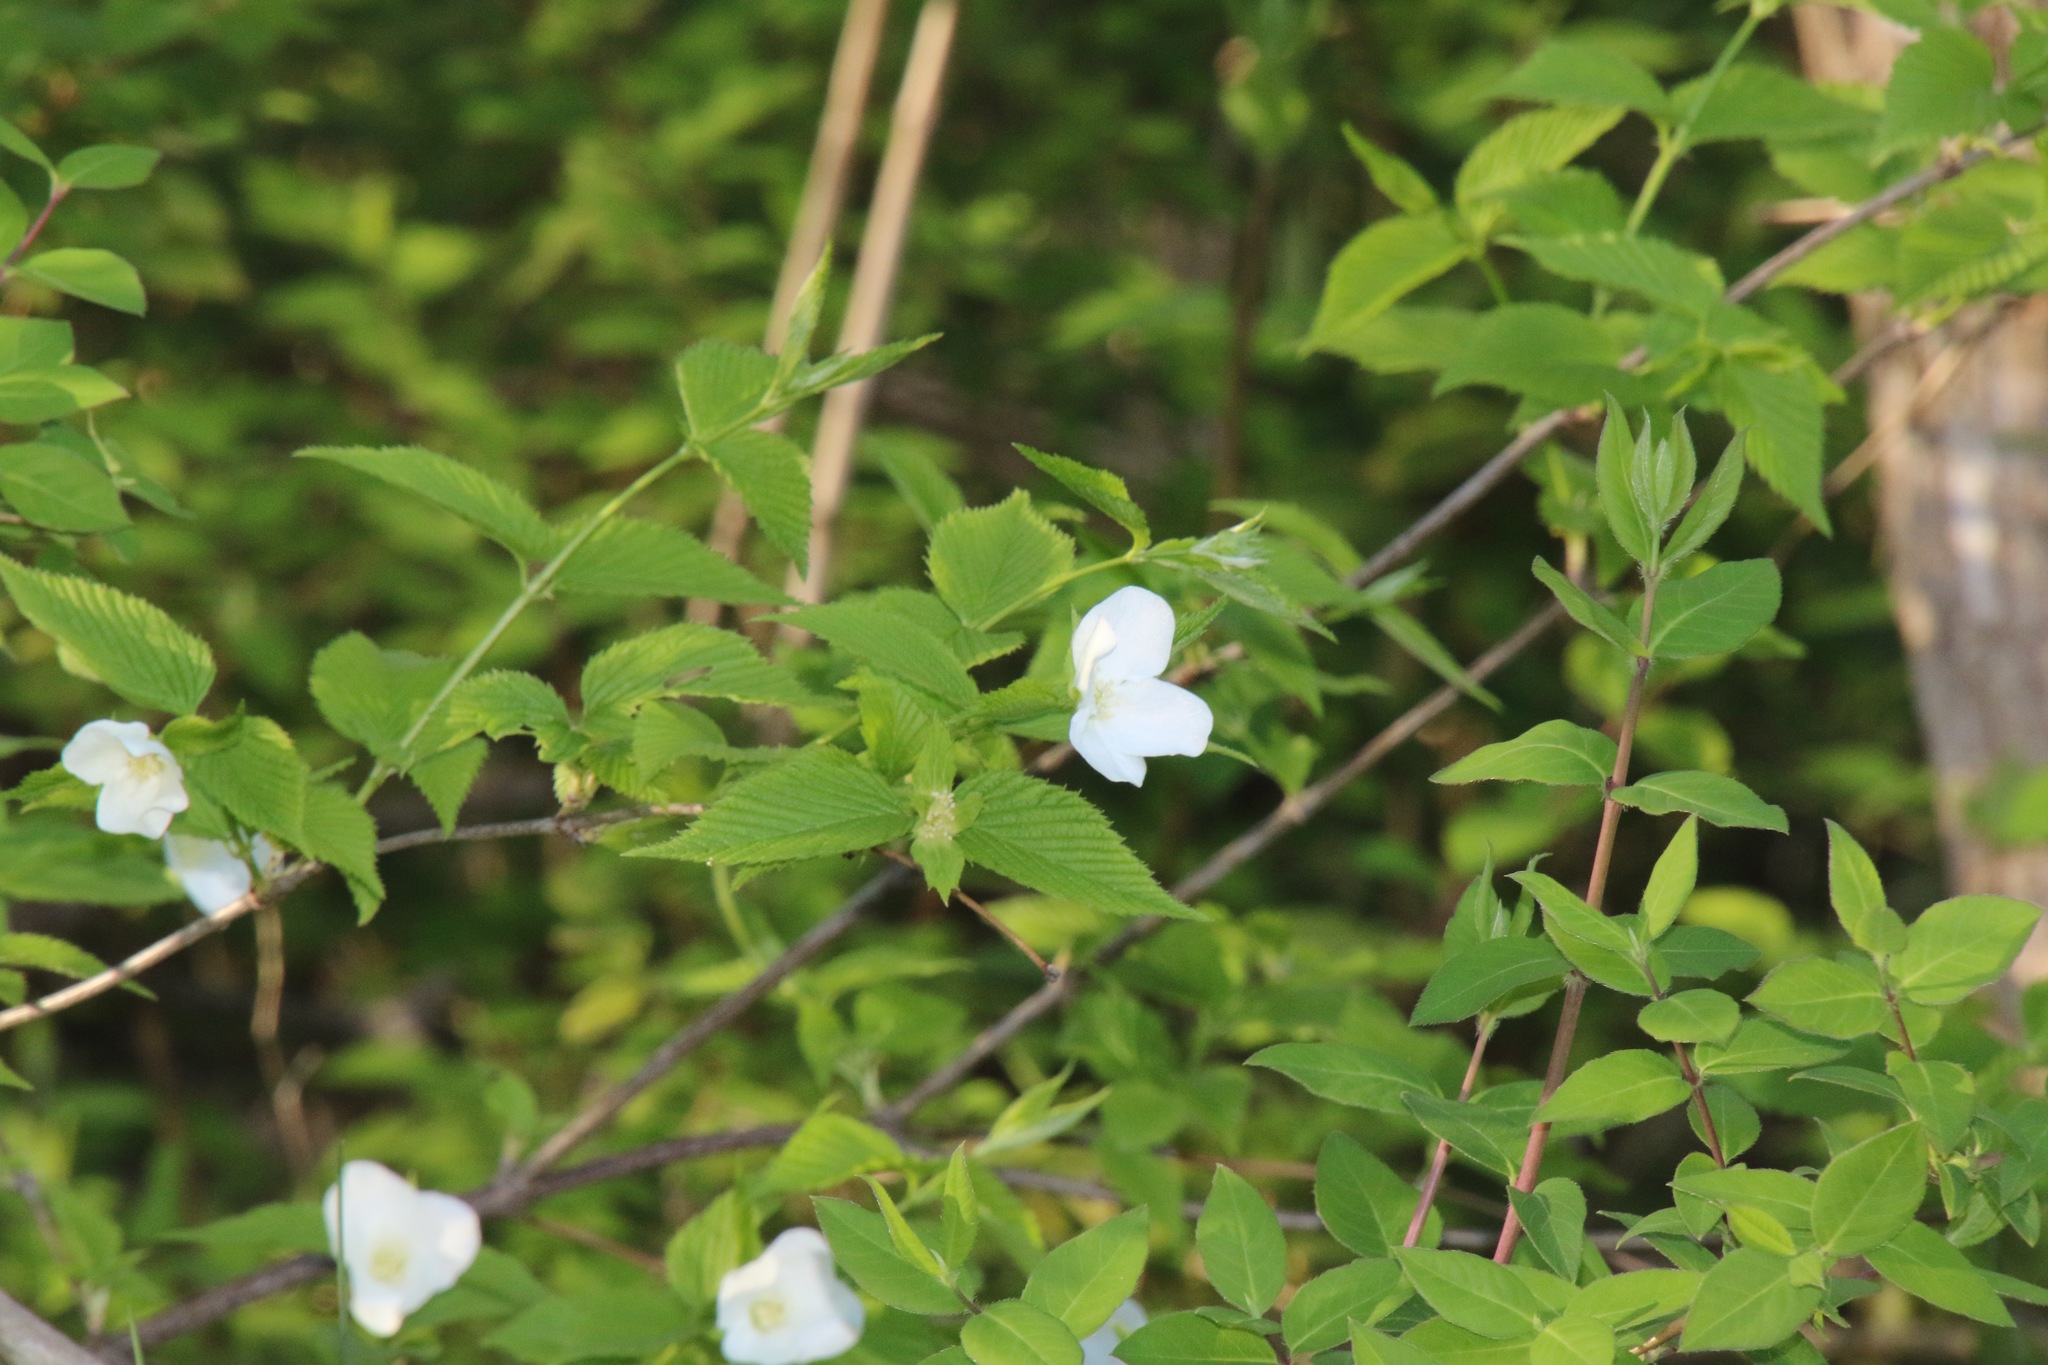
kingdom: Plantae
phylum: Tracheophyta
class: Magnoliopsida
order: Rosales
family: Rosaceae
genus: Rhodotypos
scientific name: Rhodotypos scandens
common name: Jetbead
